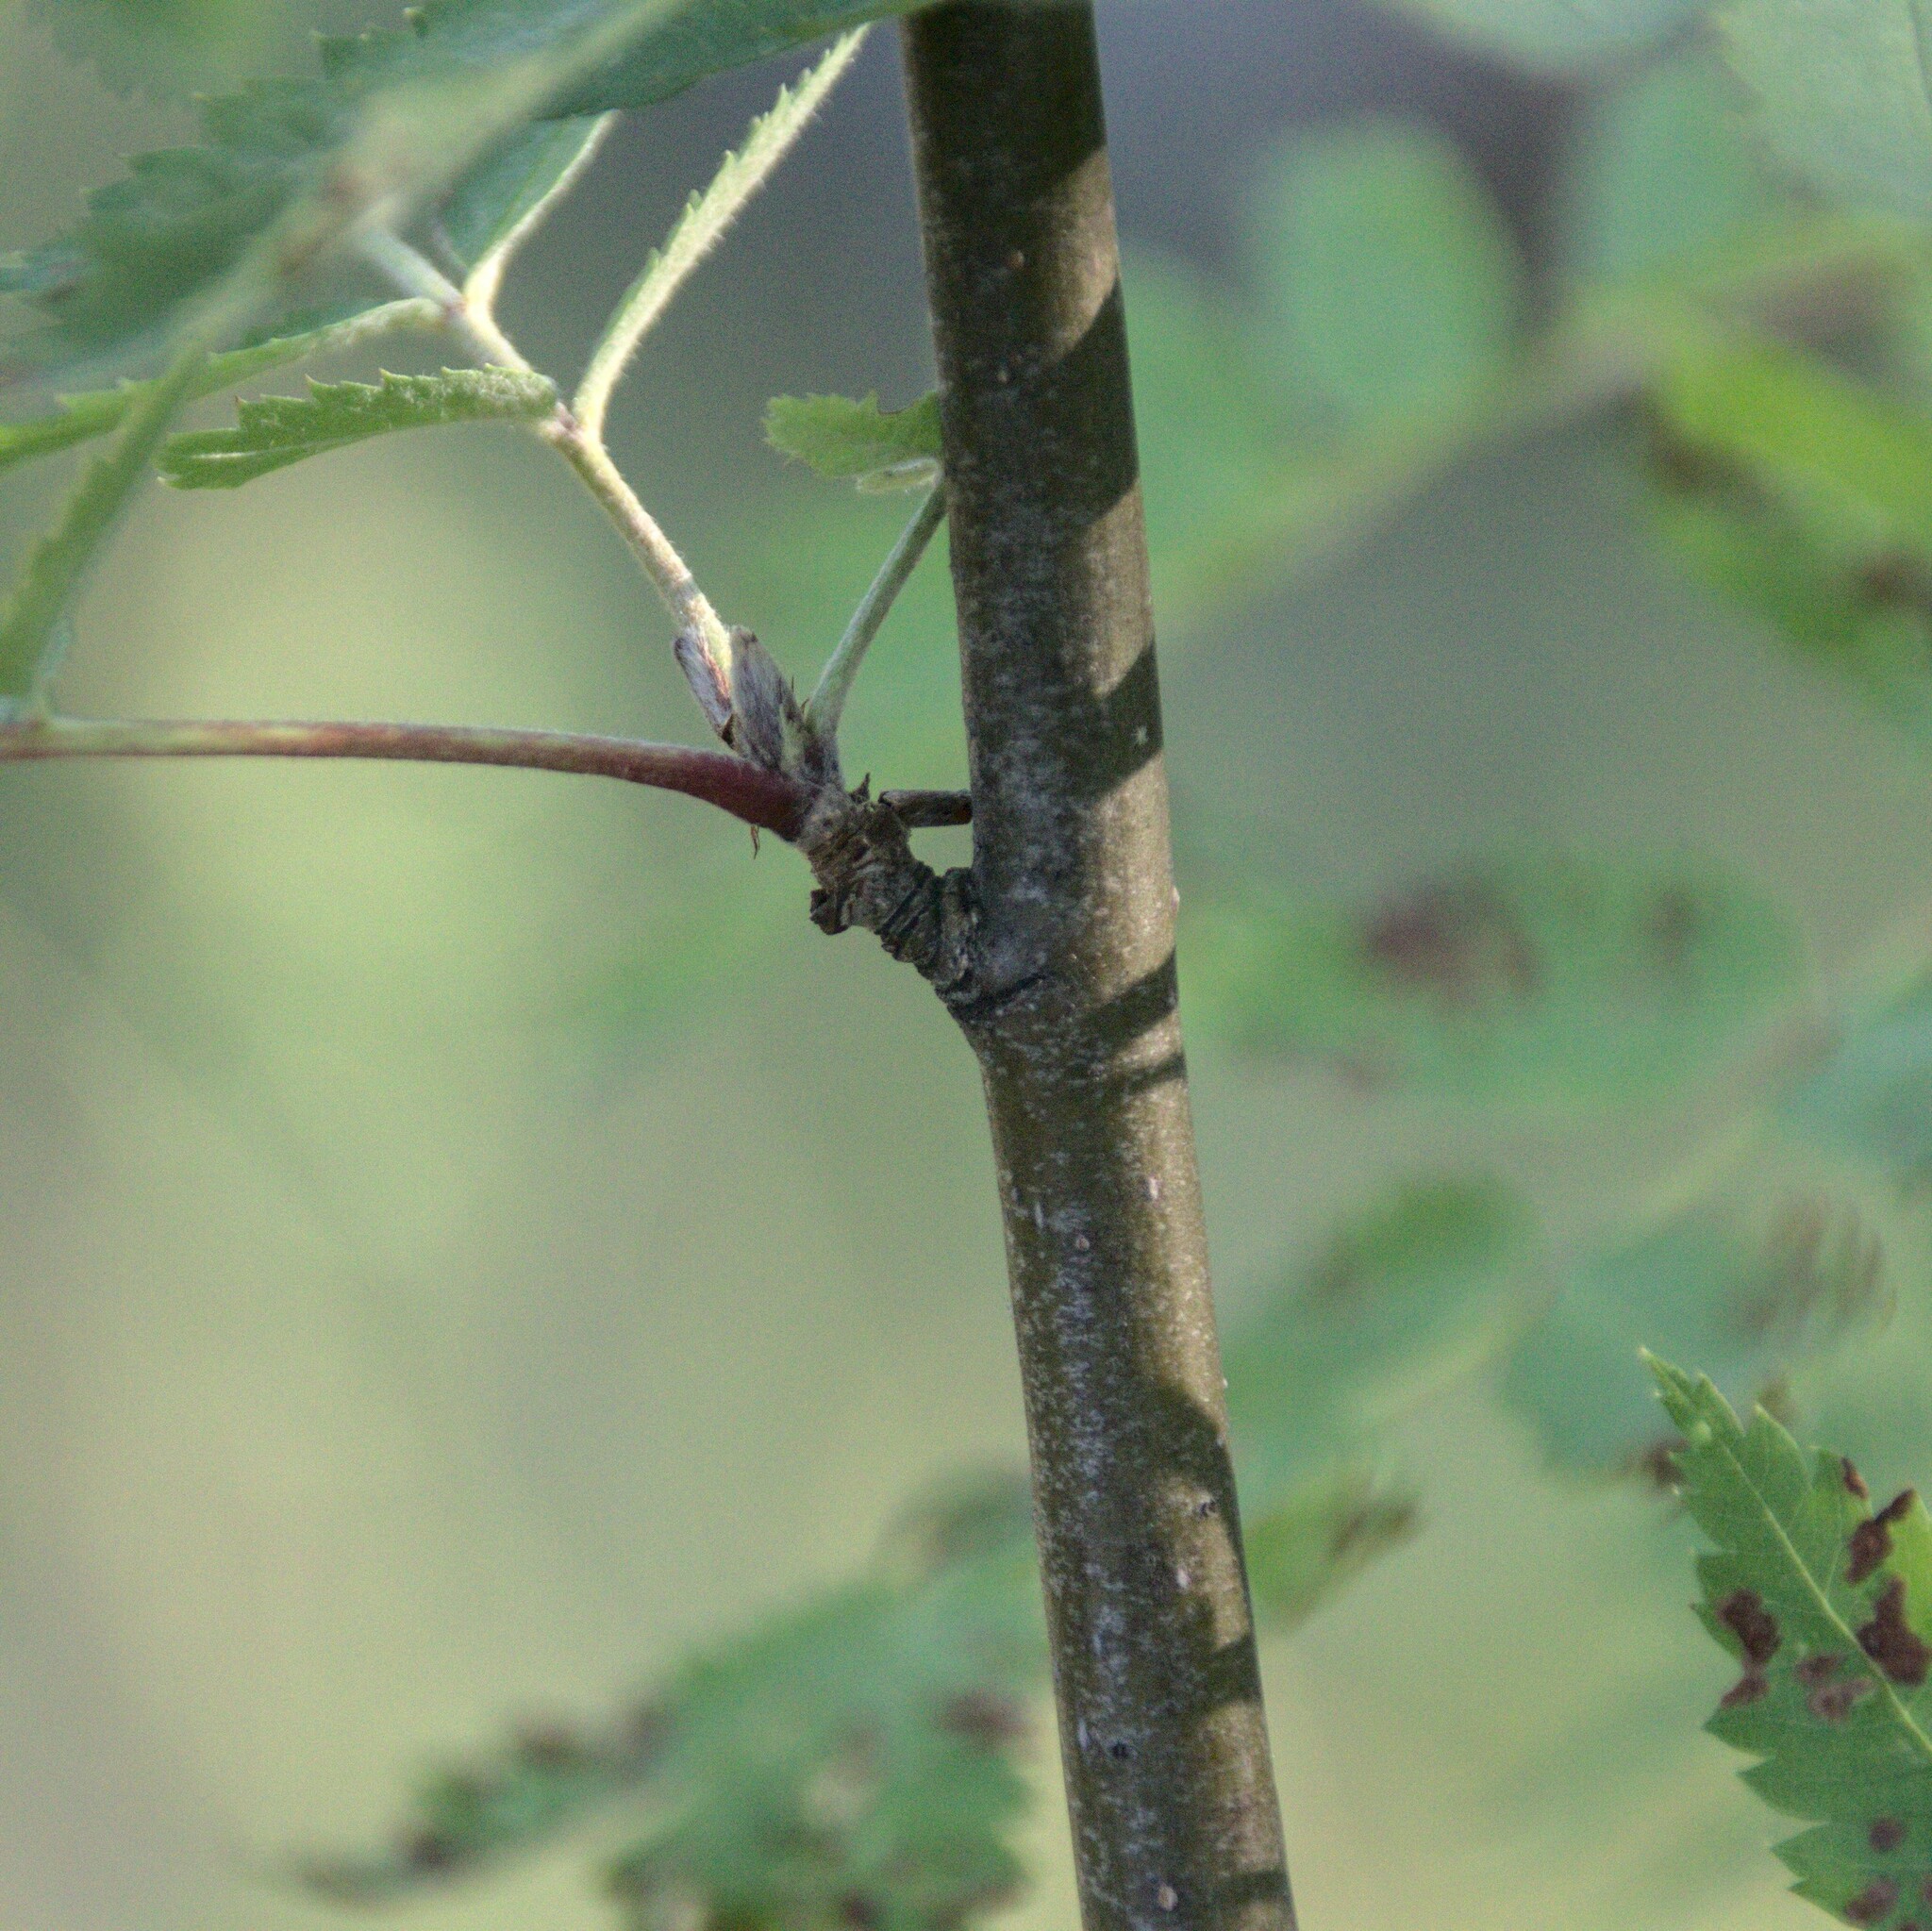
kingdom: Plantae
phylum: Tracheophyta
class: Magnoliopsida
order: Rosales
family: Rosaceae
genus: Sorbus
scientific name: Sorbus aucuparia
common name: Rowan
